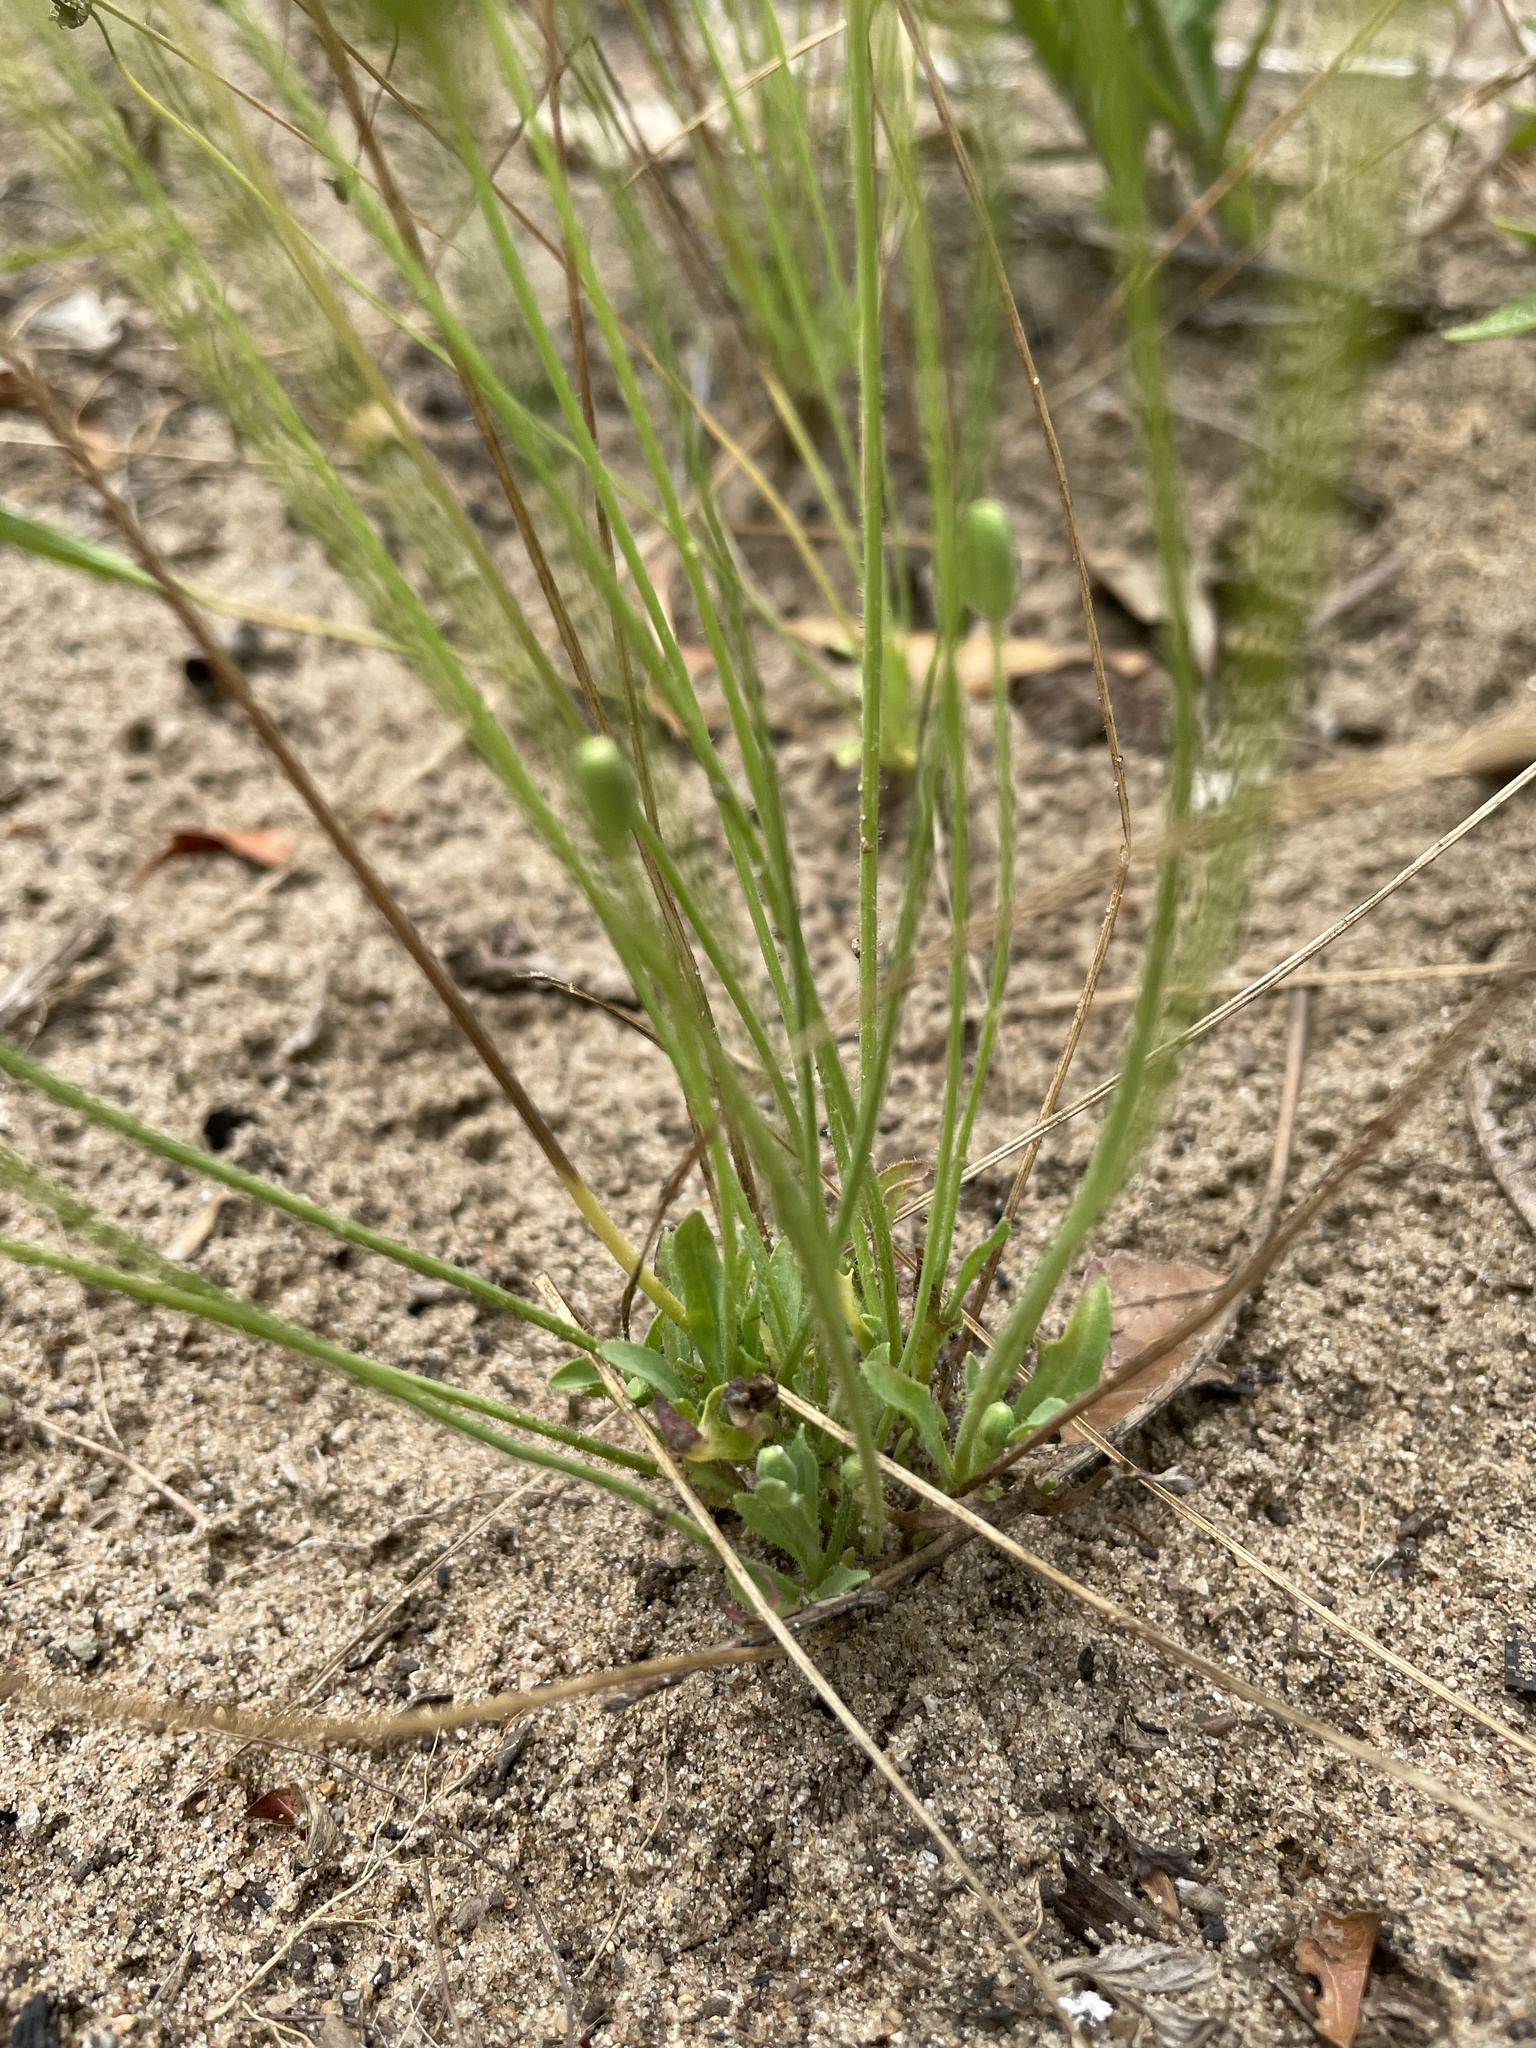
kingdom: Plantae
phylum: Tracheophyta
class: Magnoliopsida
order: Asterales
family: Asteraceae
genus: Krigia
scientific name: Krigia virginica
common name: Virginia dwarf-dandelion
